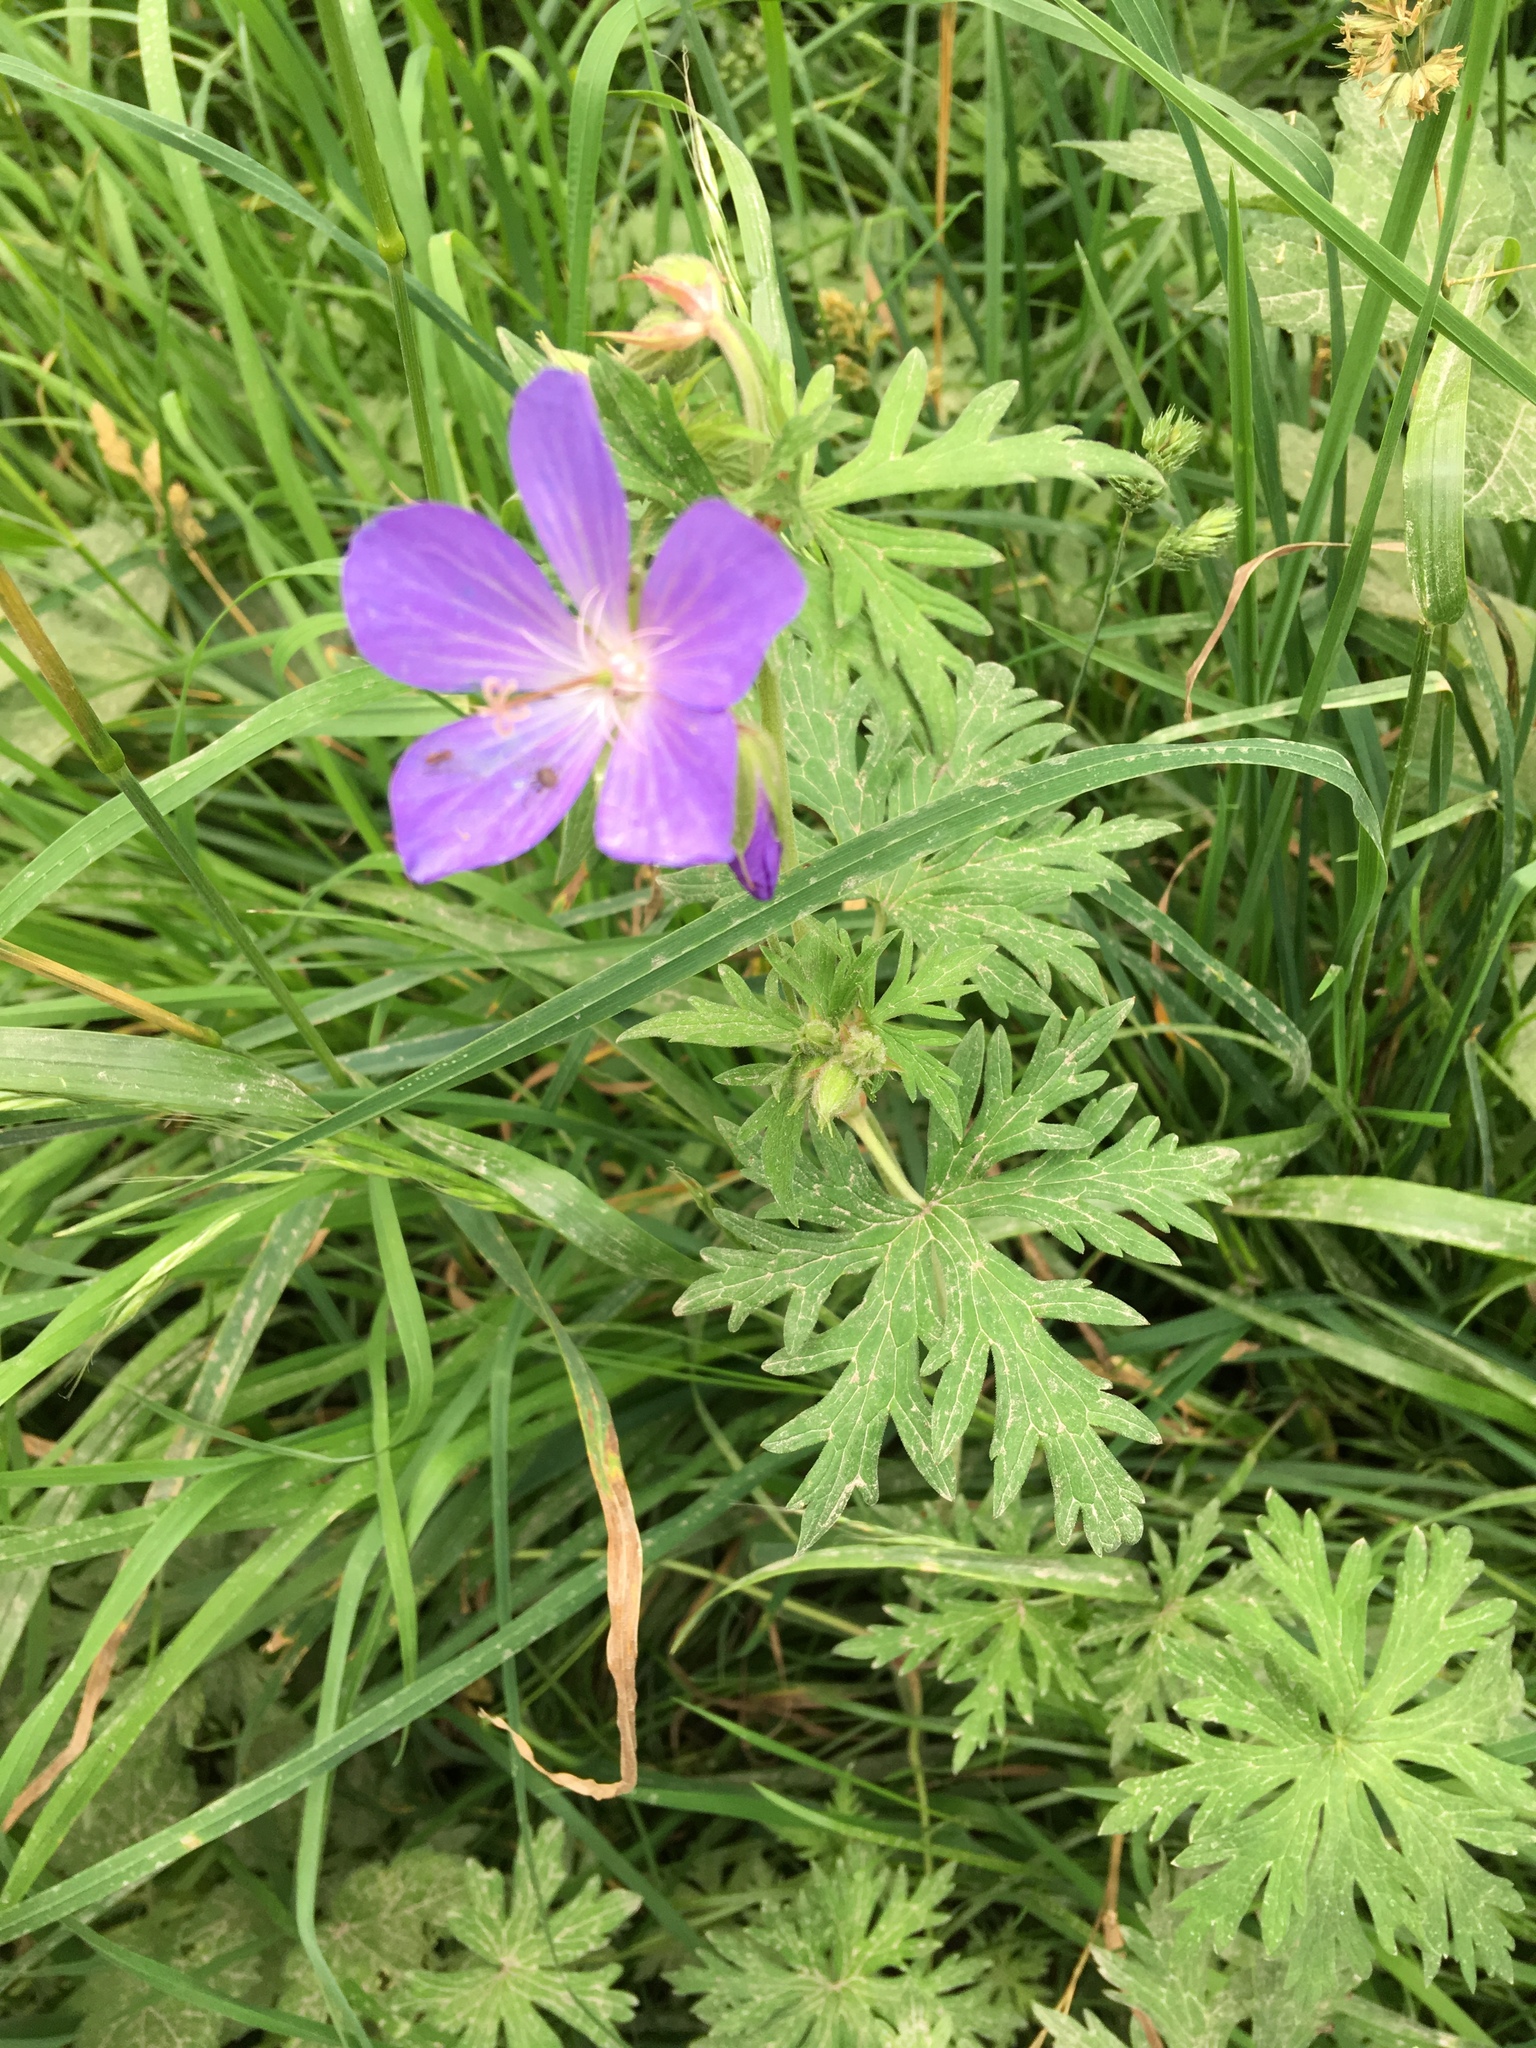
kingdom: Plantae
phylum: Tracheophyta
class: Magnoliopsida
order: Geraniales
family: Geraniaceae
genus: Geranium
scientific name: Geranium pratense
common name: Meadow crane's-bill
